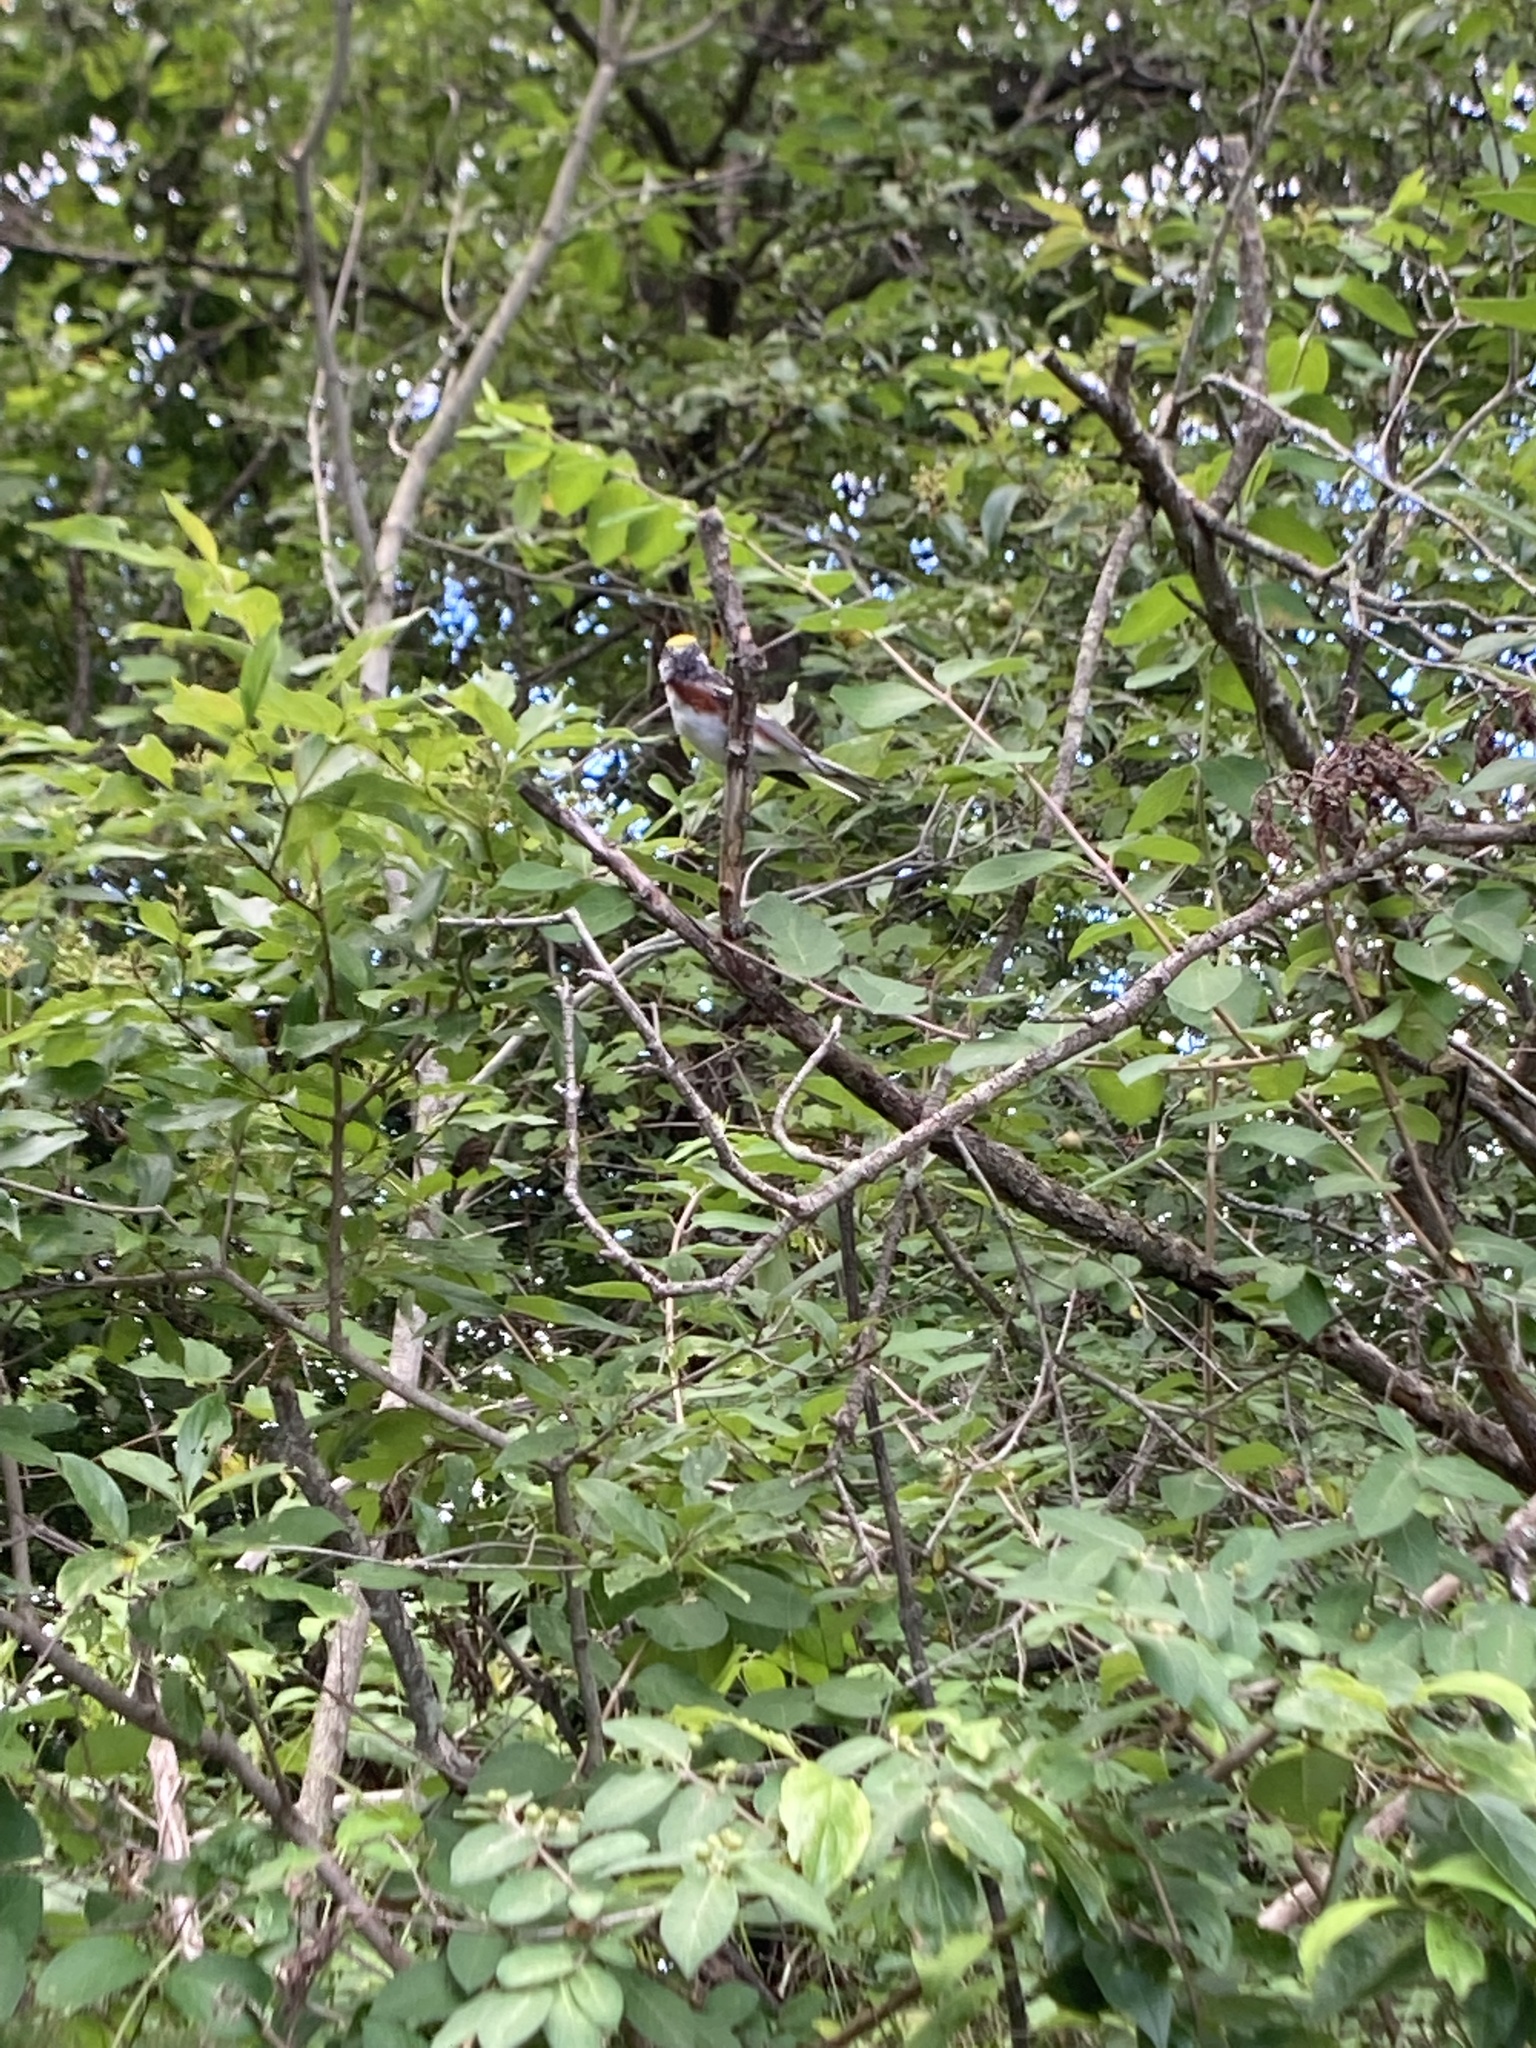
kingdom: Animalia
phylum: Chordata
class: Aves
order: Passeriformes
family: Parulidae
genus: Setophaga
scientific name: Setophaga pensylvanica
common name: Chestnut-sided warbler
